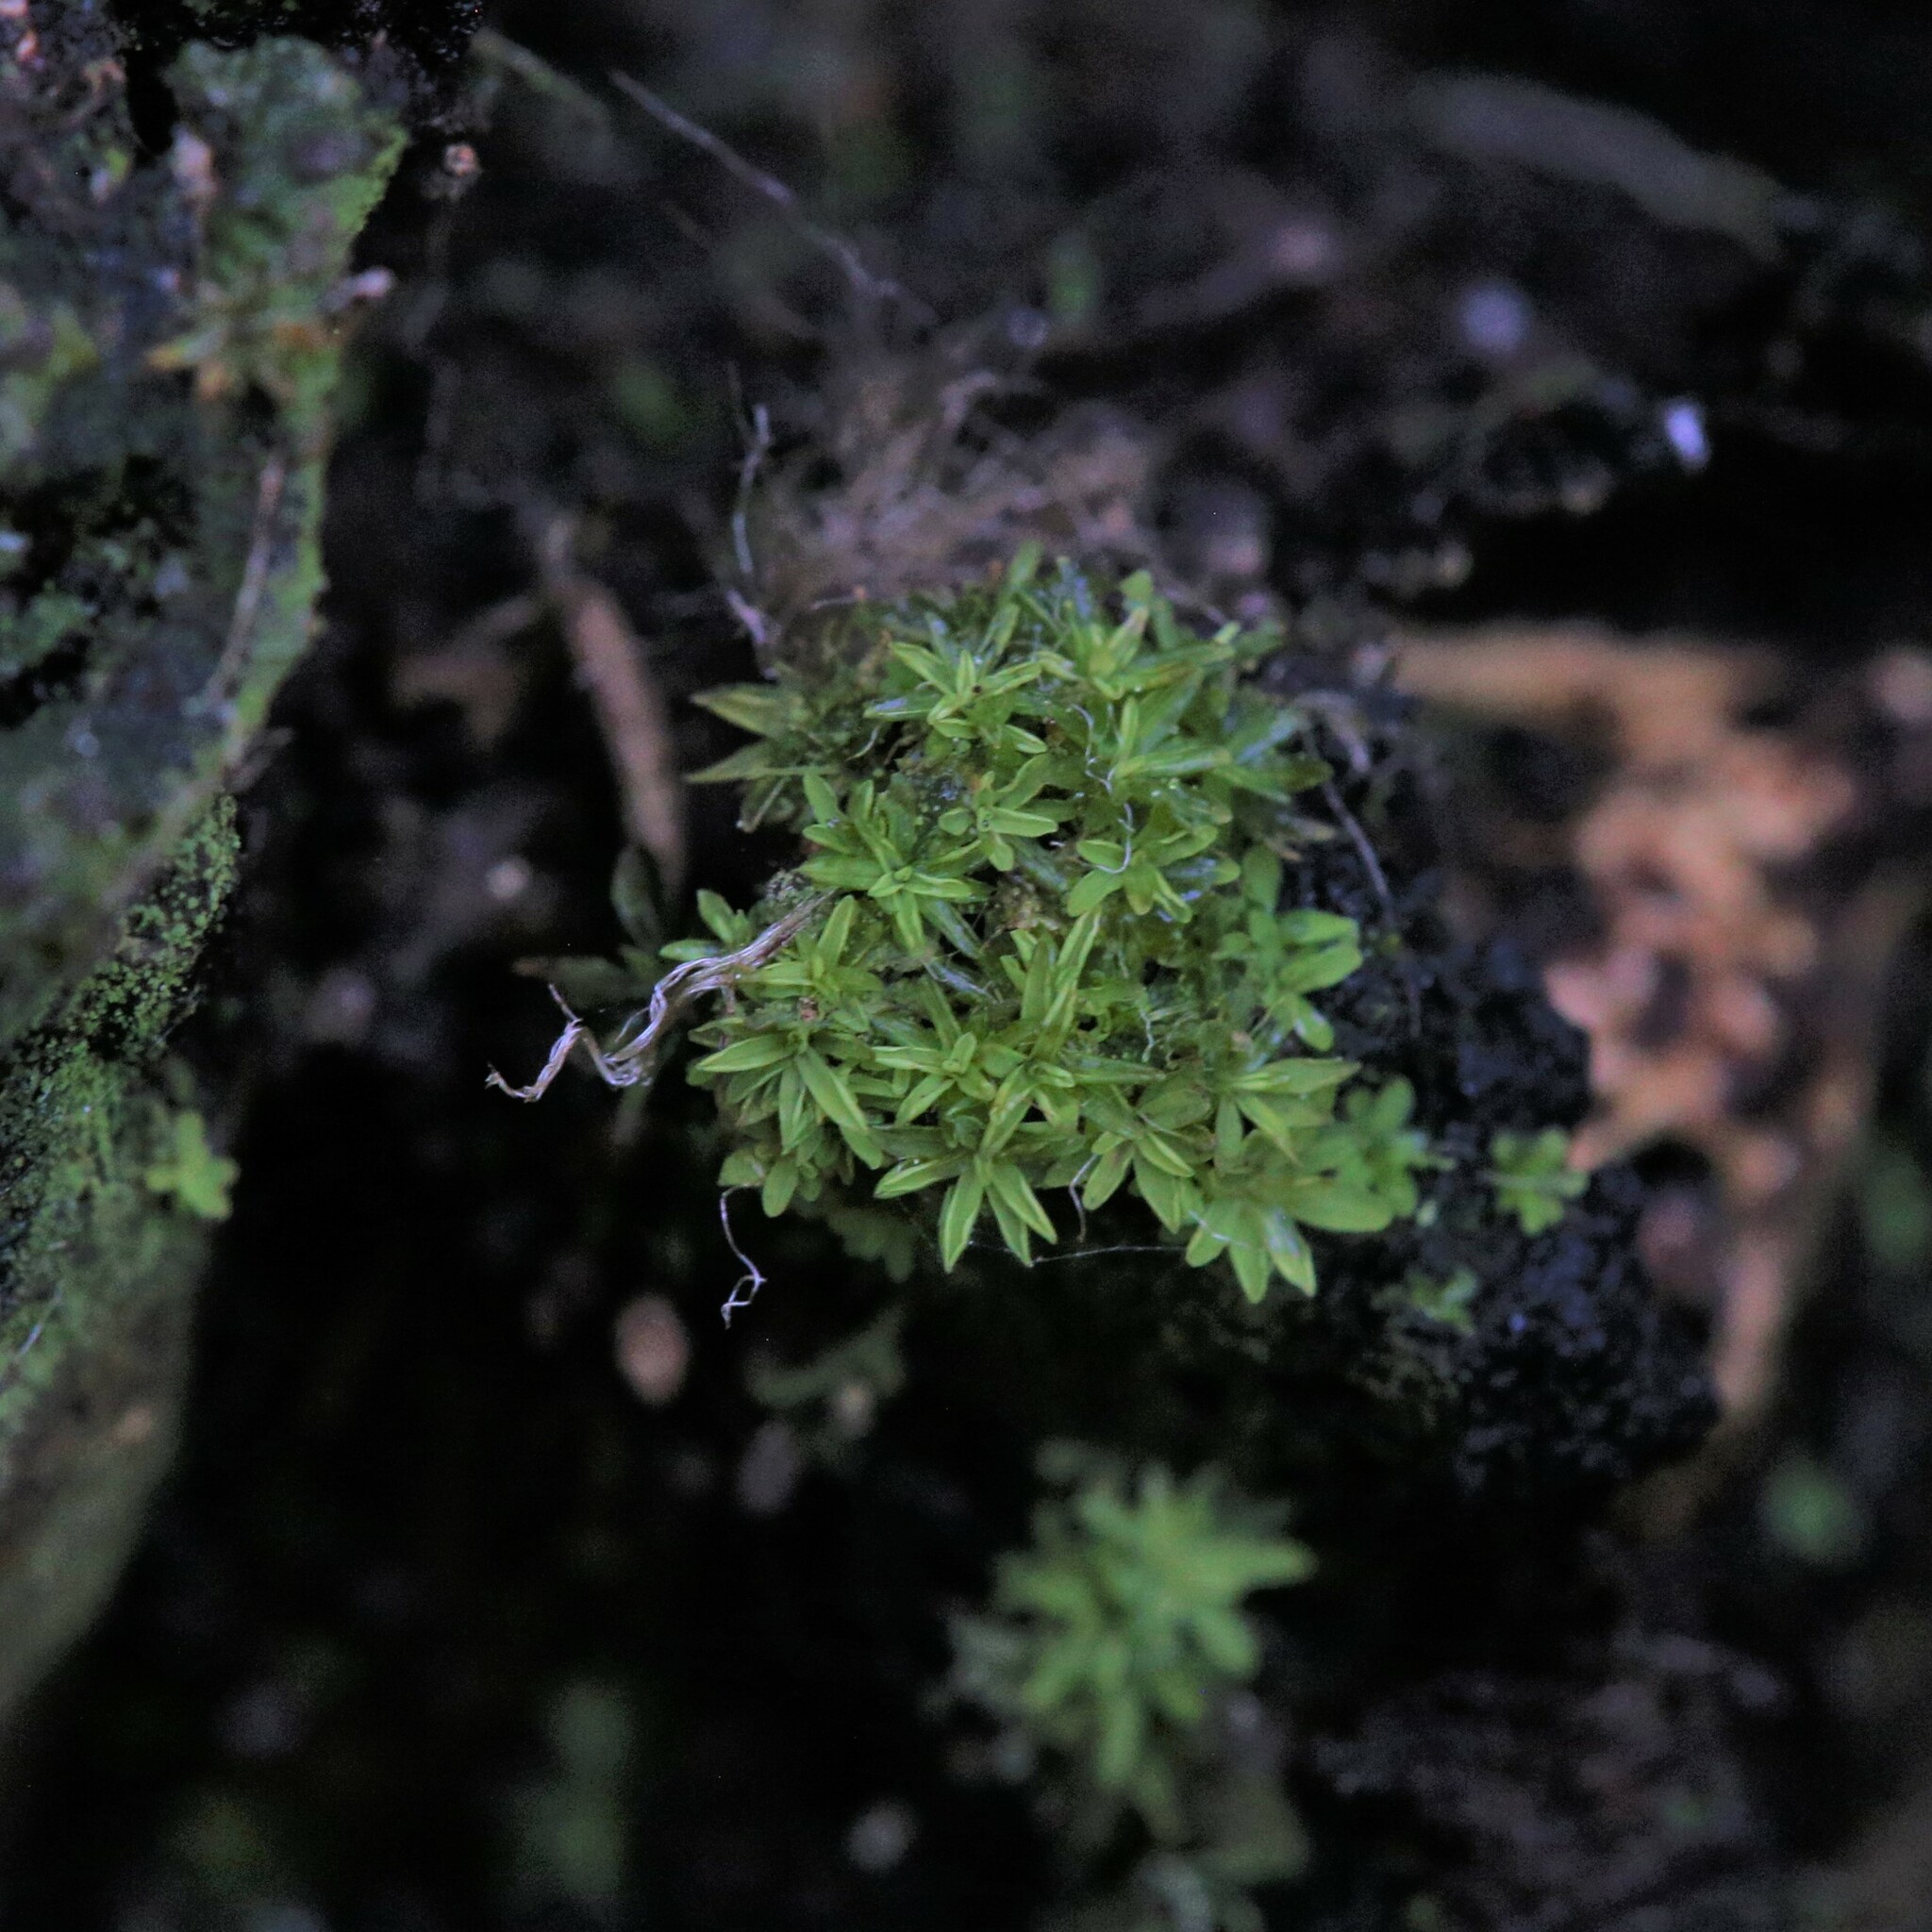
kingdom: Plantae
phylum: Bryophyta
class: Bryopsida
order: Pottiales
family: Pottiaceae
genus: Calymperastrum
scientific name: Calymperastrum latifolium
